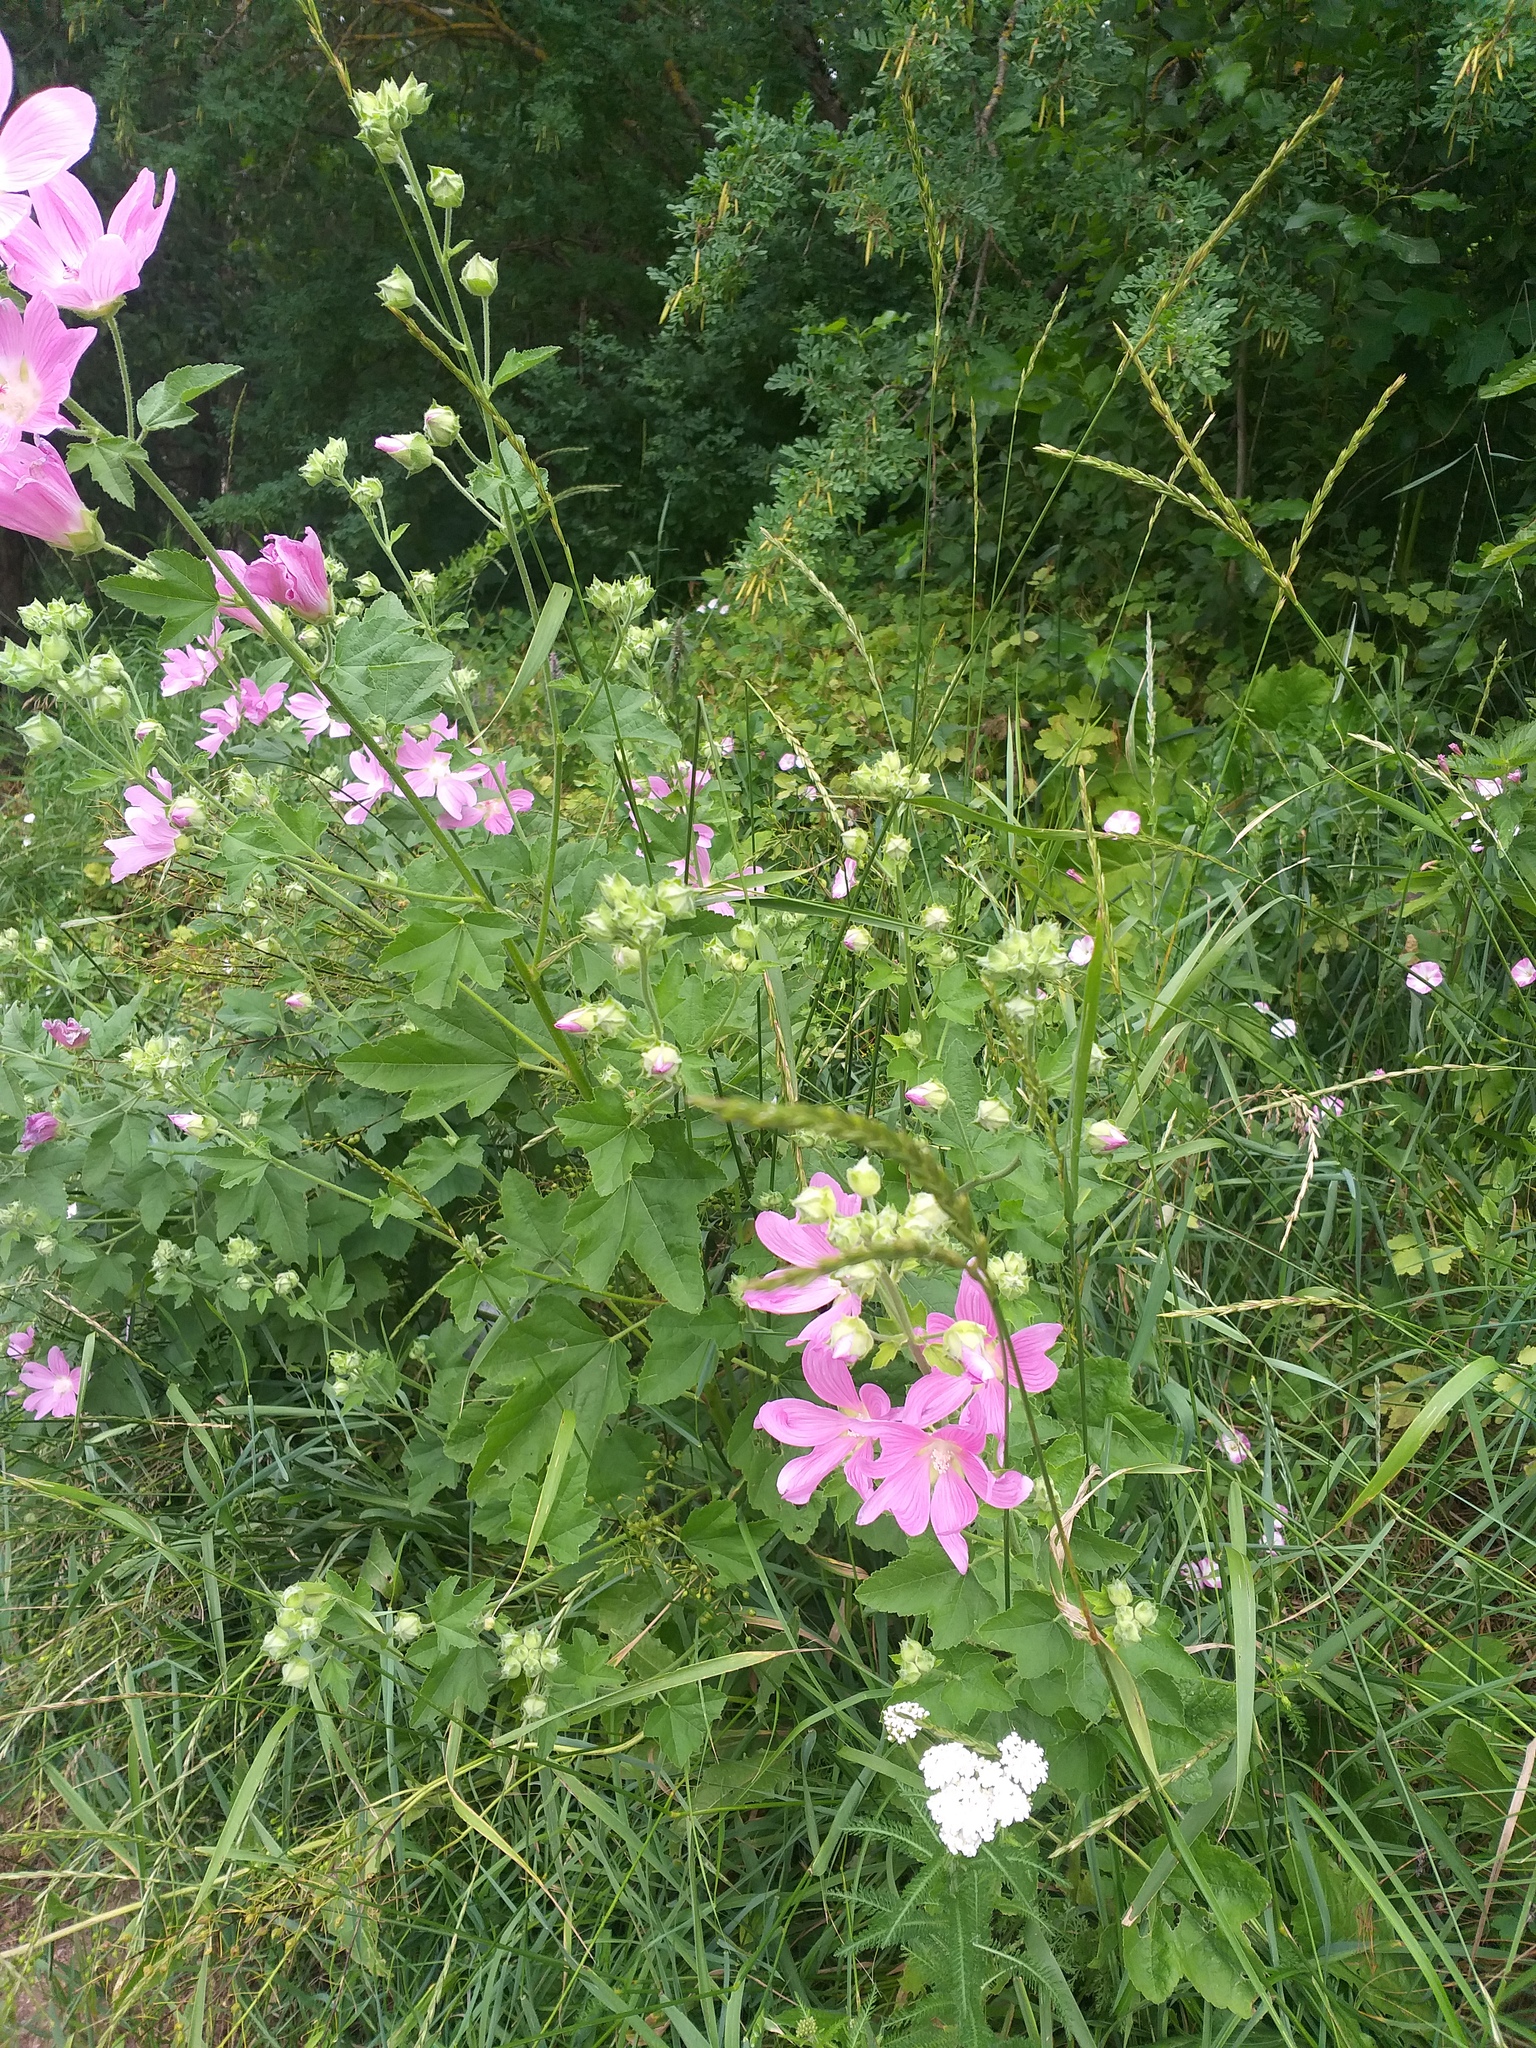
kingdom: Plantae
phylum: Tracheophyta
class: Magnoliopsida
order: Malvales
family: Malvaceae
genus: Malva
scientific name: Malva thuringiaca
